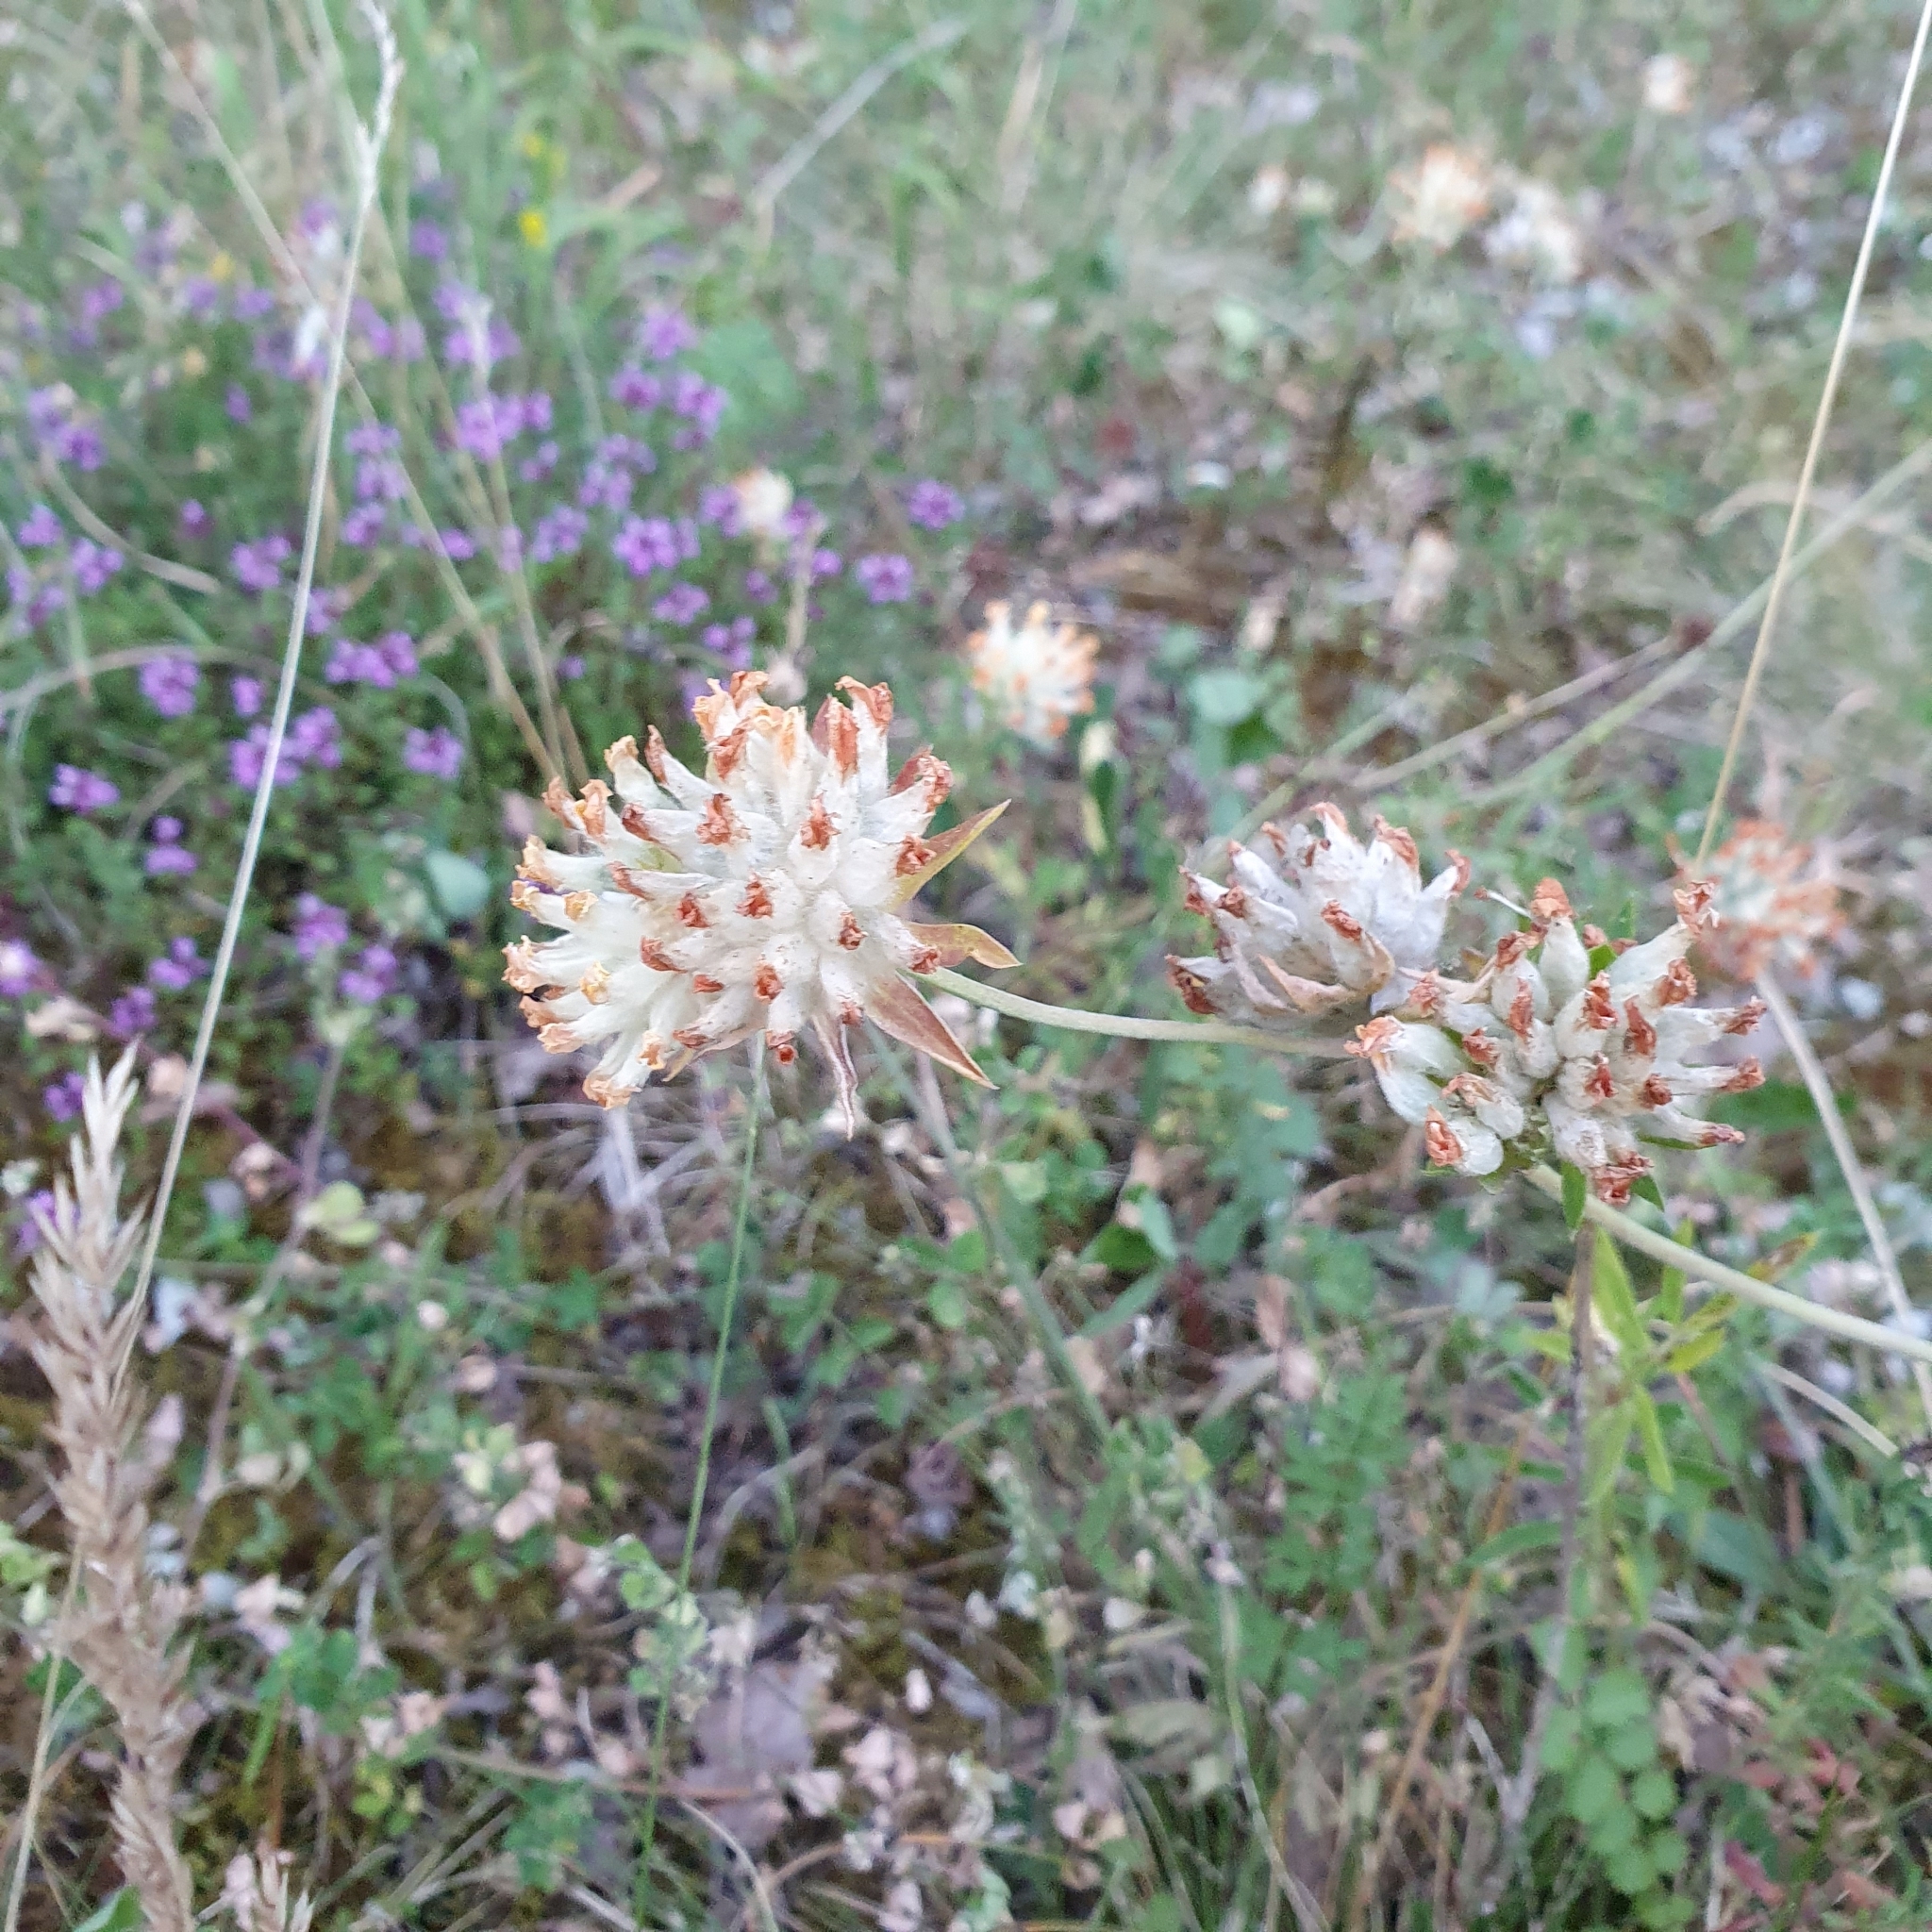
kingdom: Plantae
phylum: Tracheophyta
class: Magnoliopsida
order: Fabales
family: Fabaceae
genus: Anthyllis
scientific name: Anthyllis vulneraria
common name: Kidney vetch
